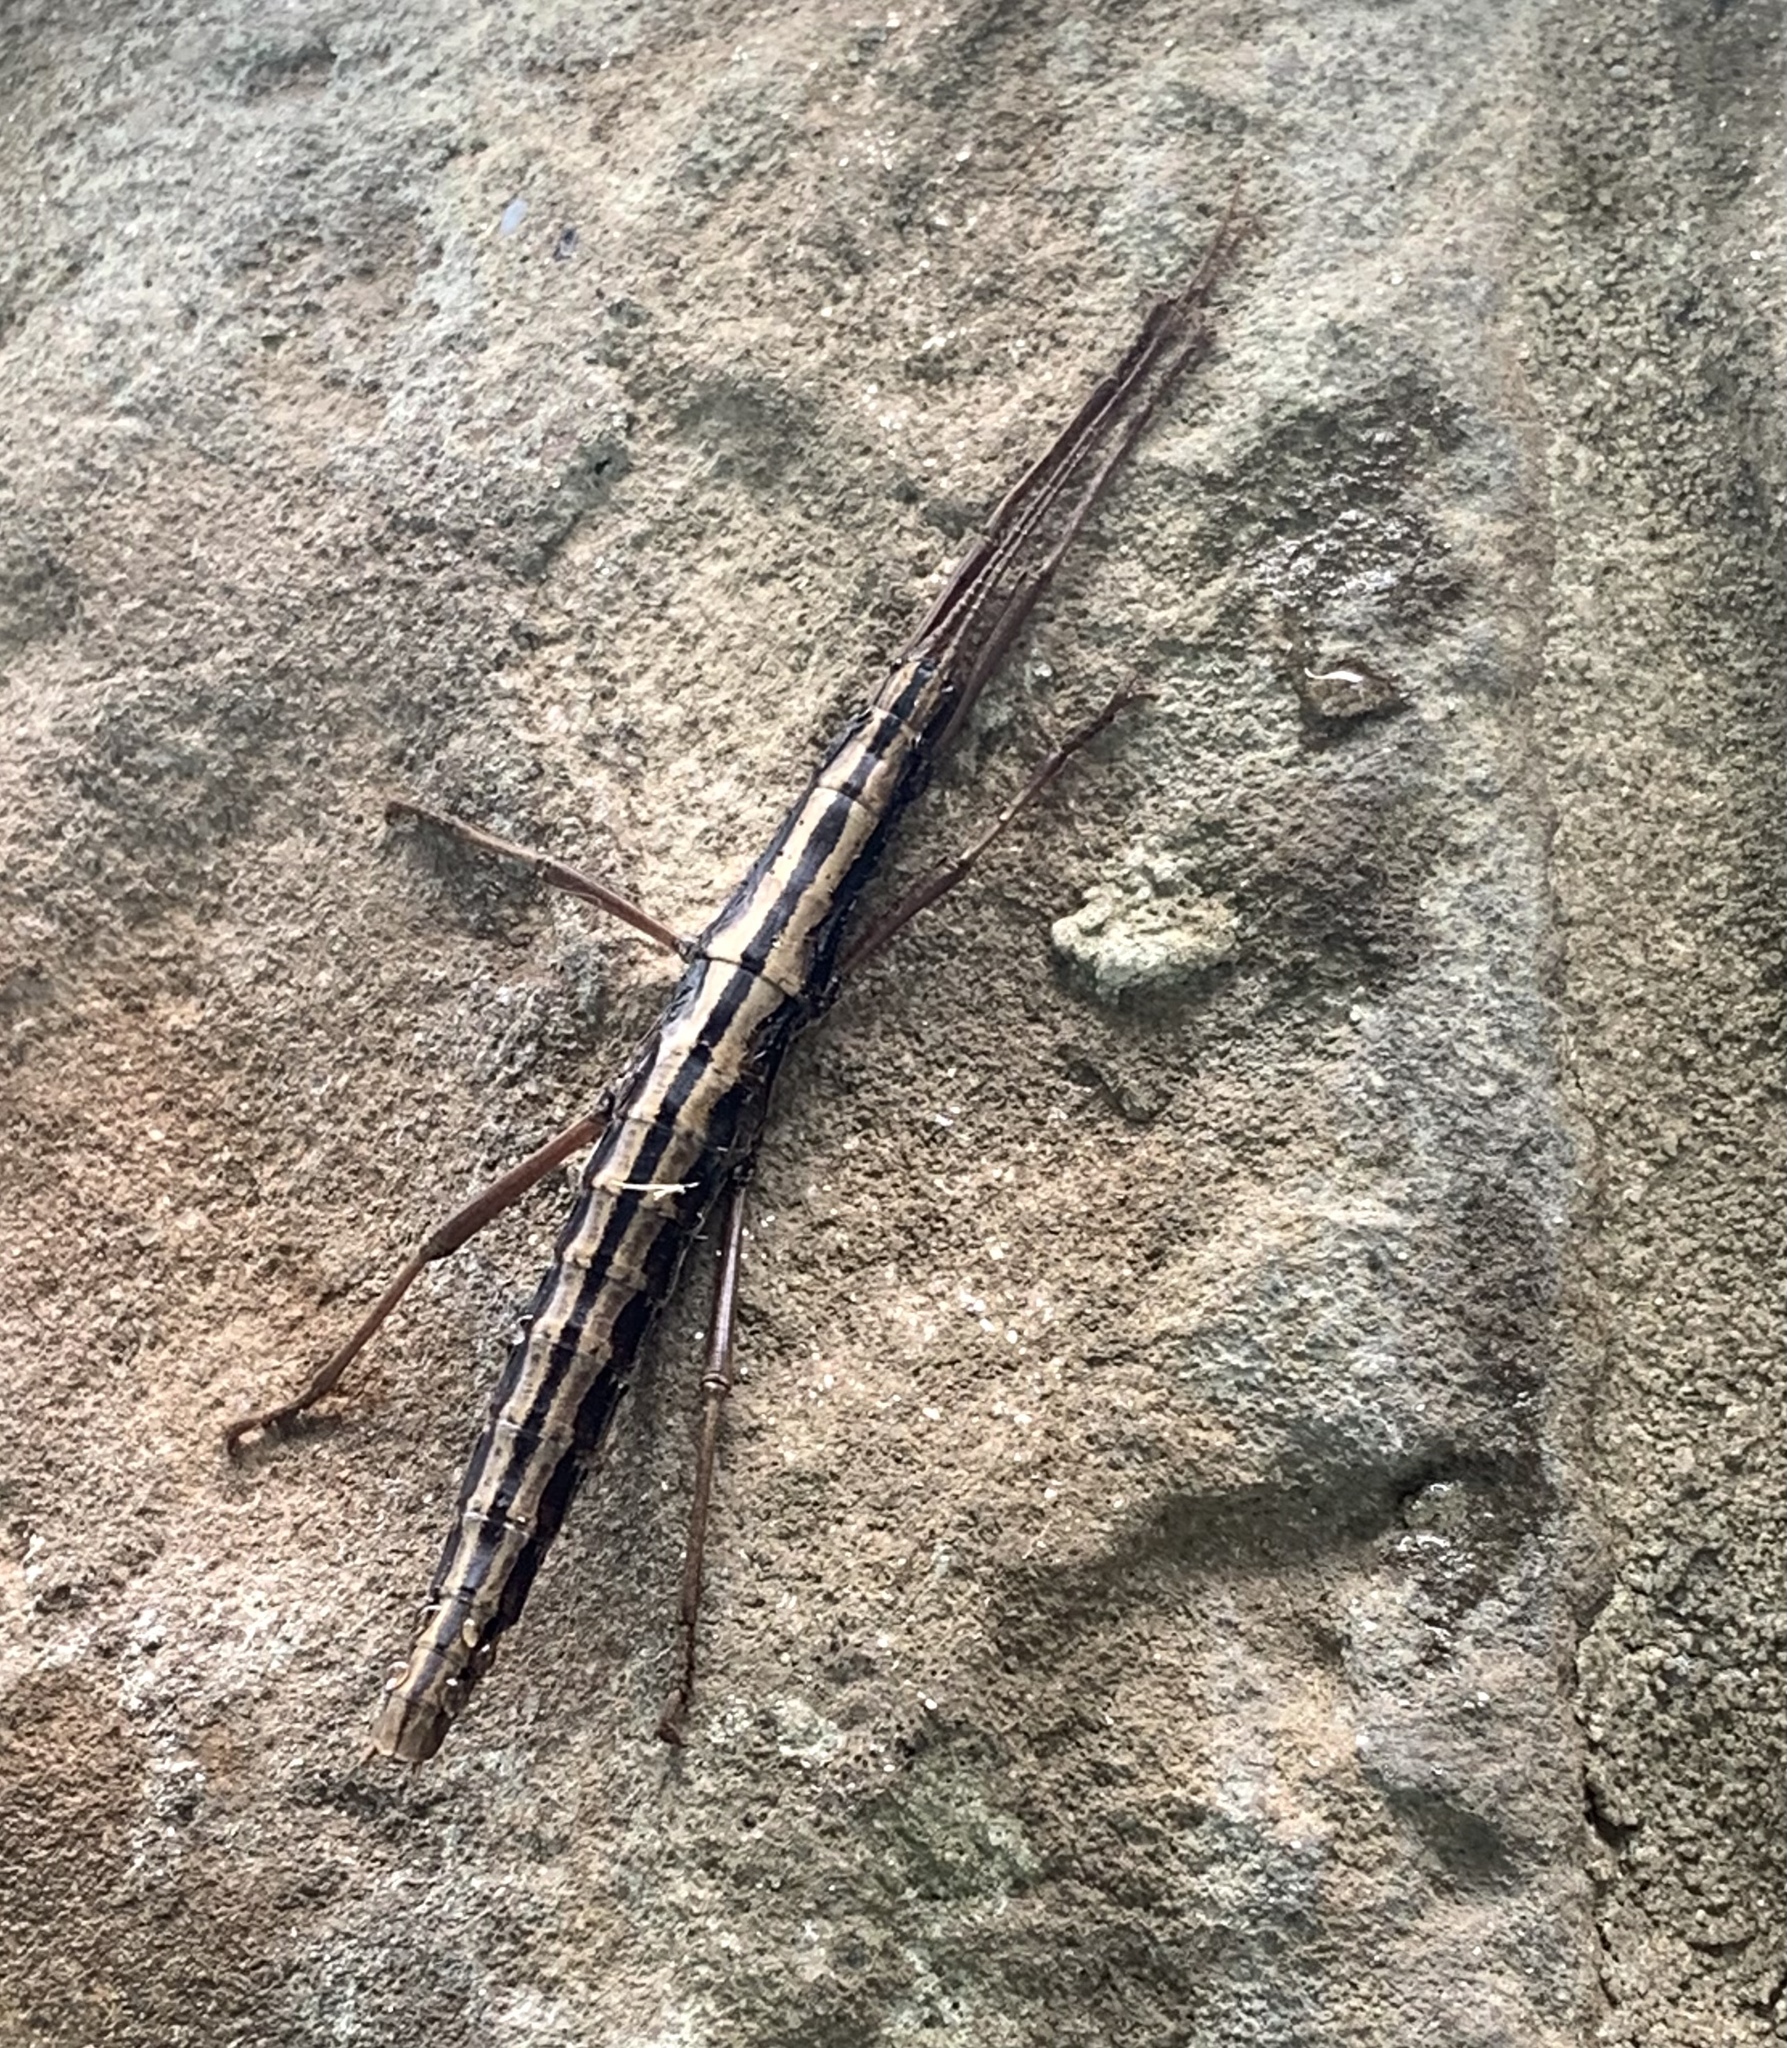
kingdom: Animalia
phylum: Arthropoda
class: Insecta
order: Phasmida
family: Pseudophasmatidae
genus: Anisomorpha
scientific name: Anisomorpha buprestoides
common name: Florida stick insect
